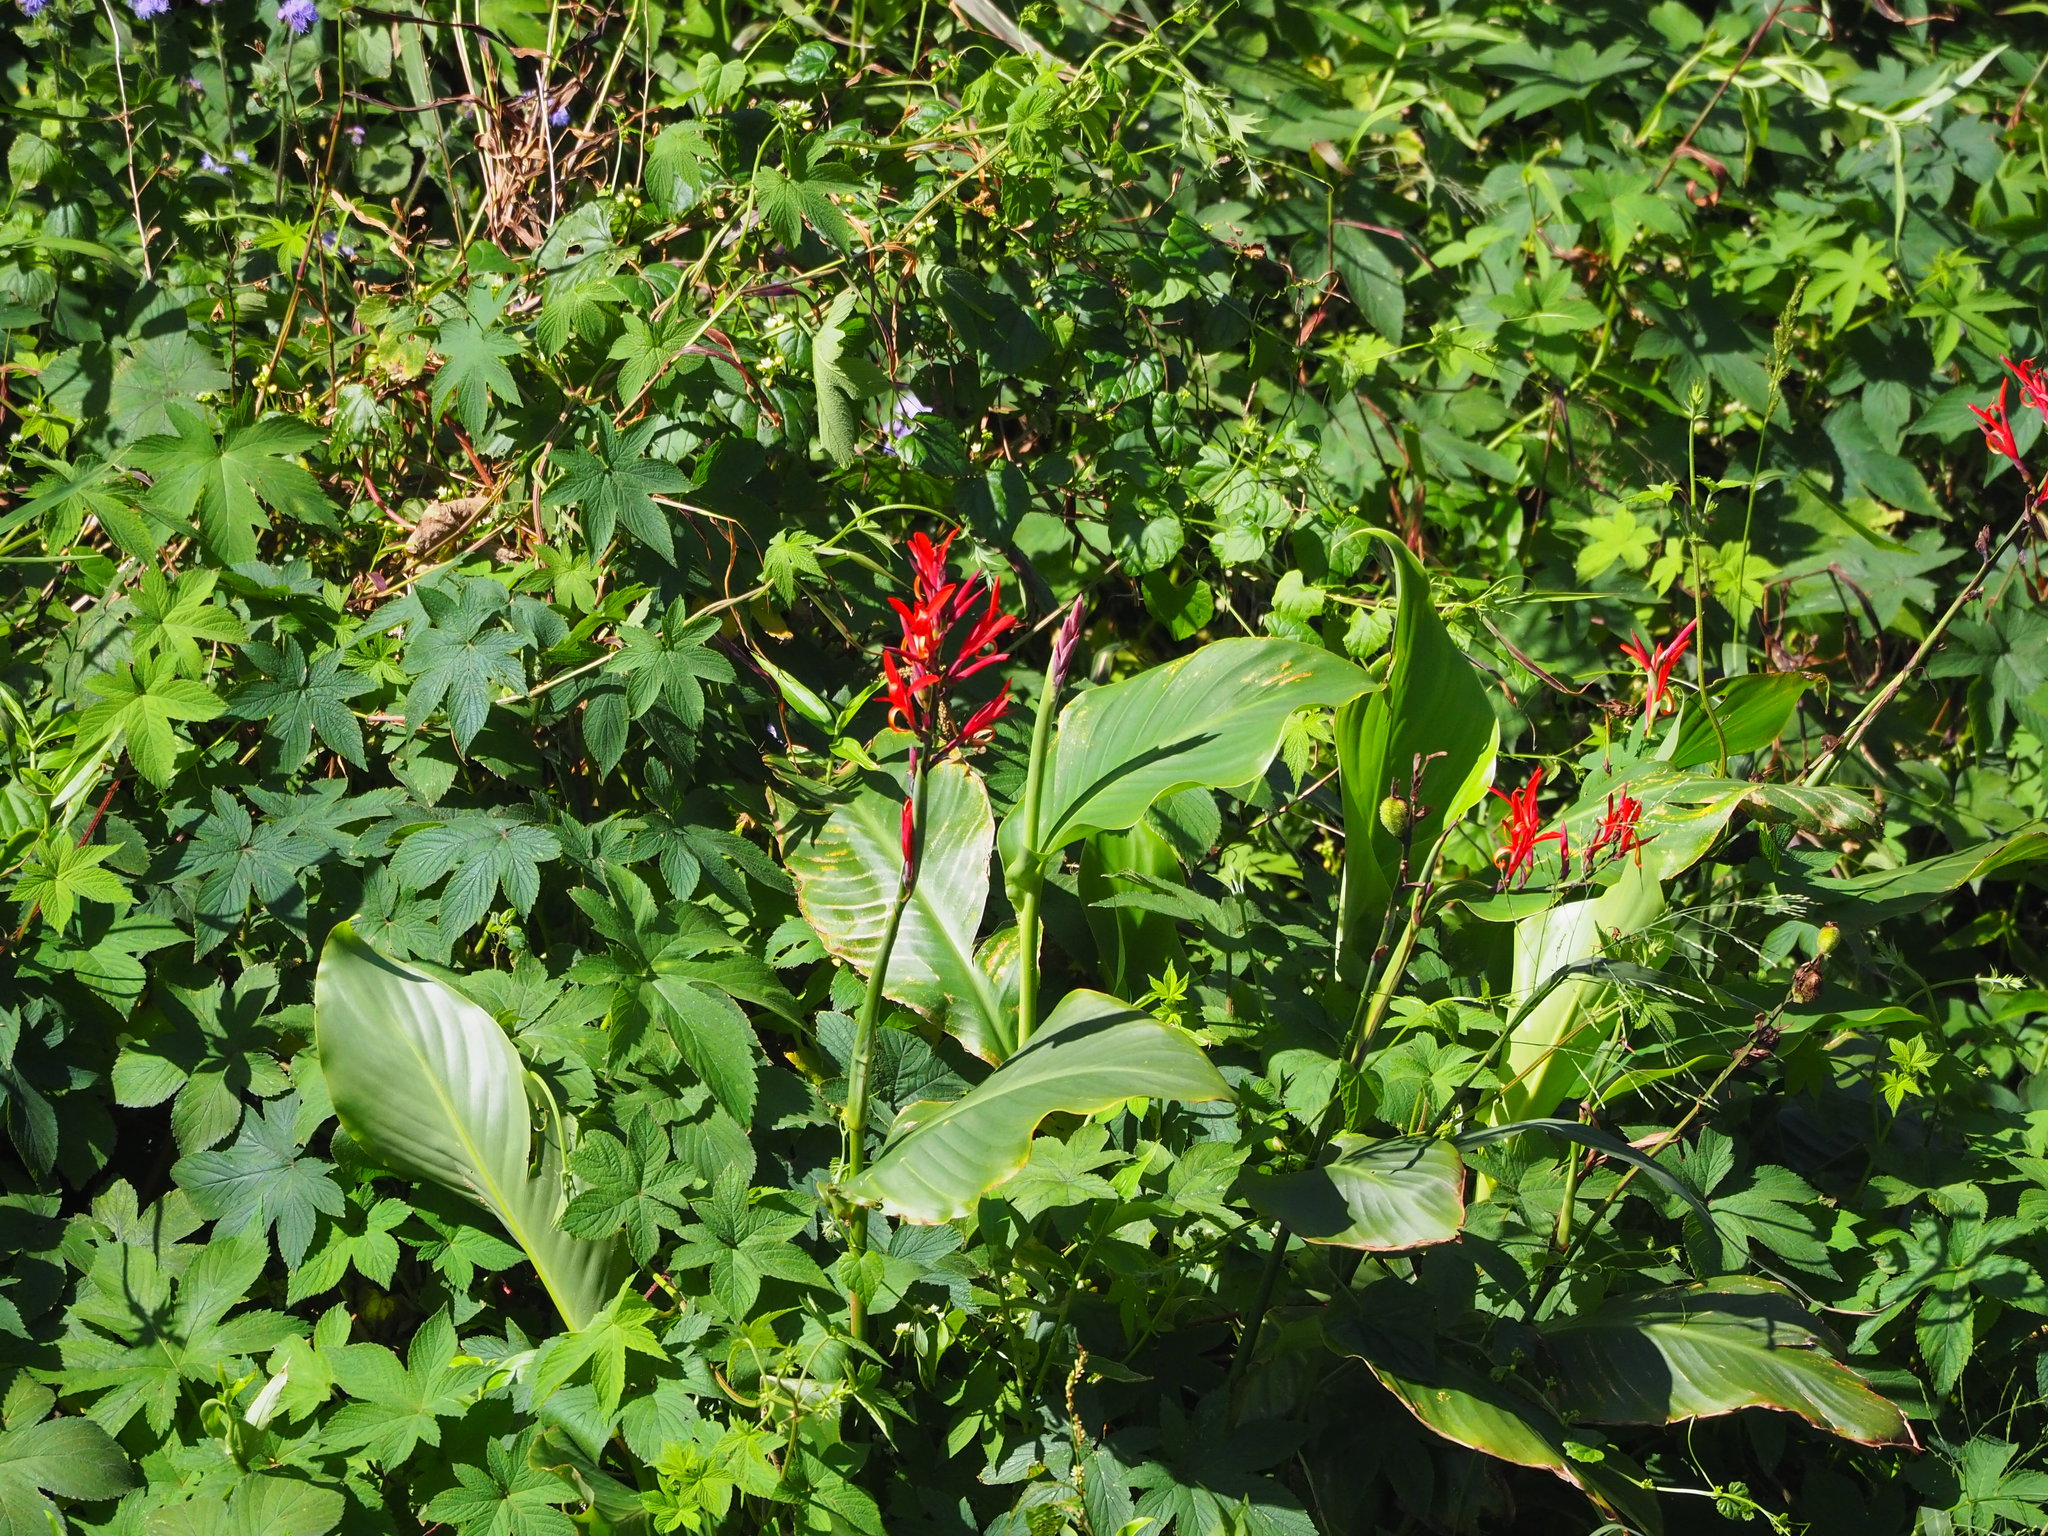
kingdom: Plantae
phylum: Tracheophyta
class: Liliopsida
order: Zingiberales
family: Cannaceae
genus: Canna
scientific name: Canna indica
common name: Indian shot
